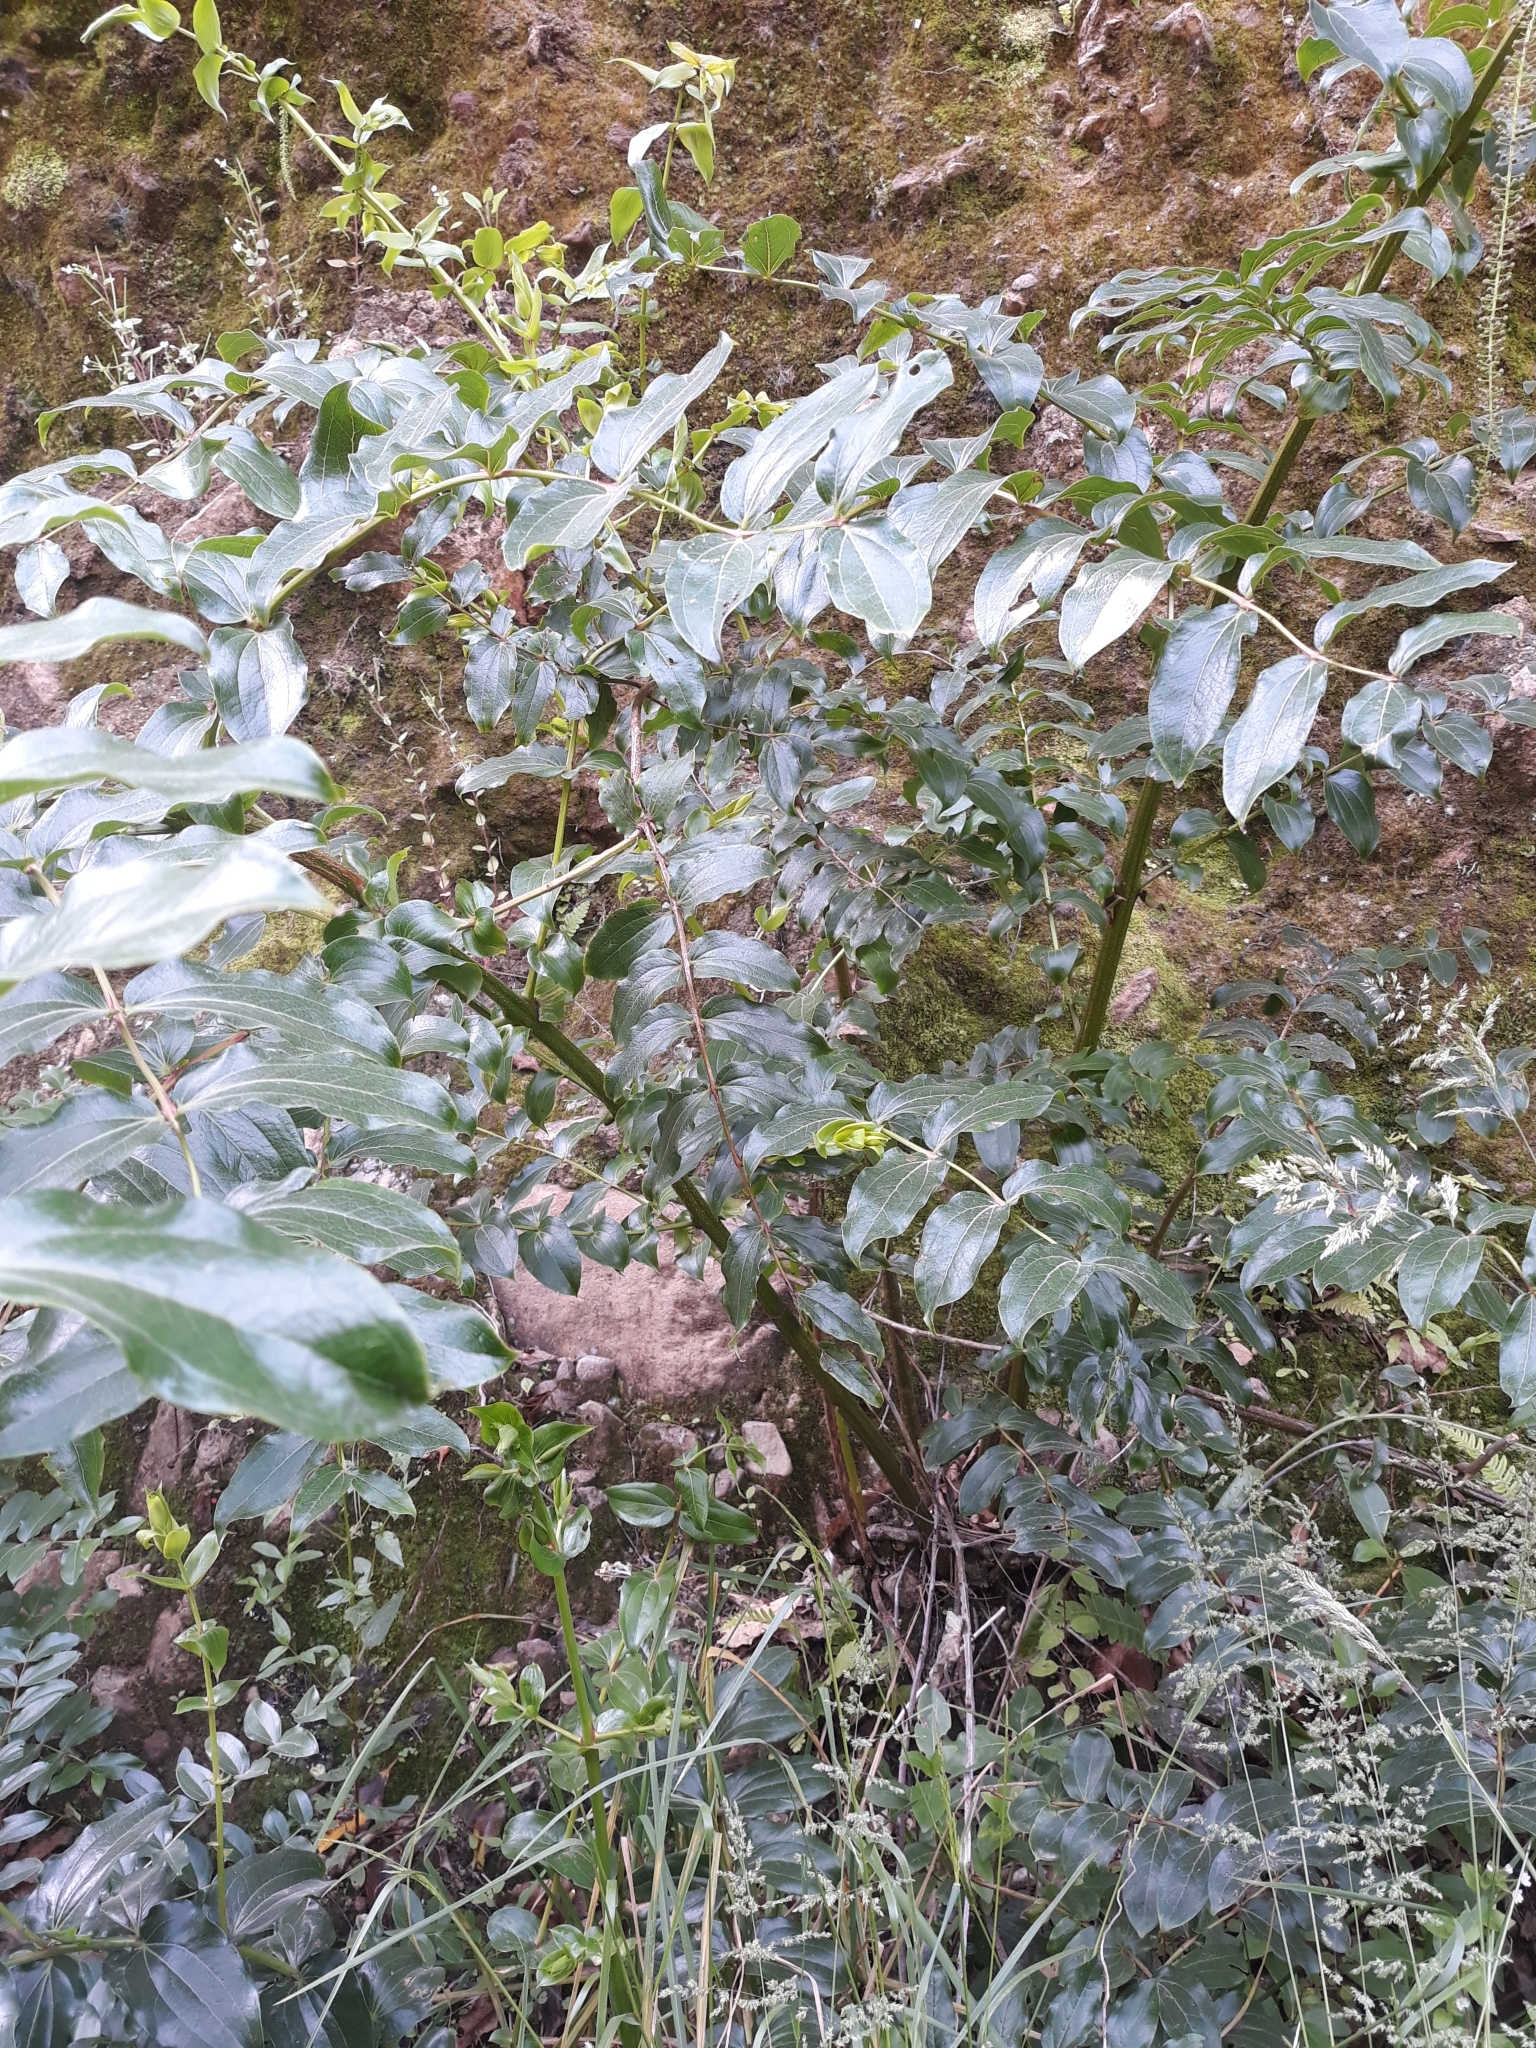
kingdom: Plantae
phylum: Tracheophyta
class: Magnoliopsida
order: Cucurbitales
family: Coriariaceae
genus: Coriaria
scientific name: Coriaria arborea
